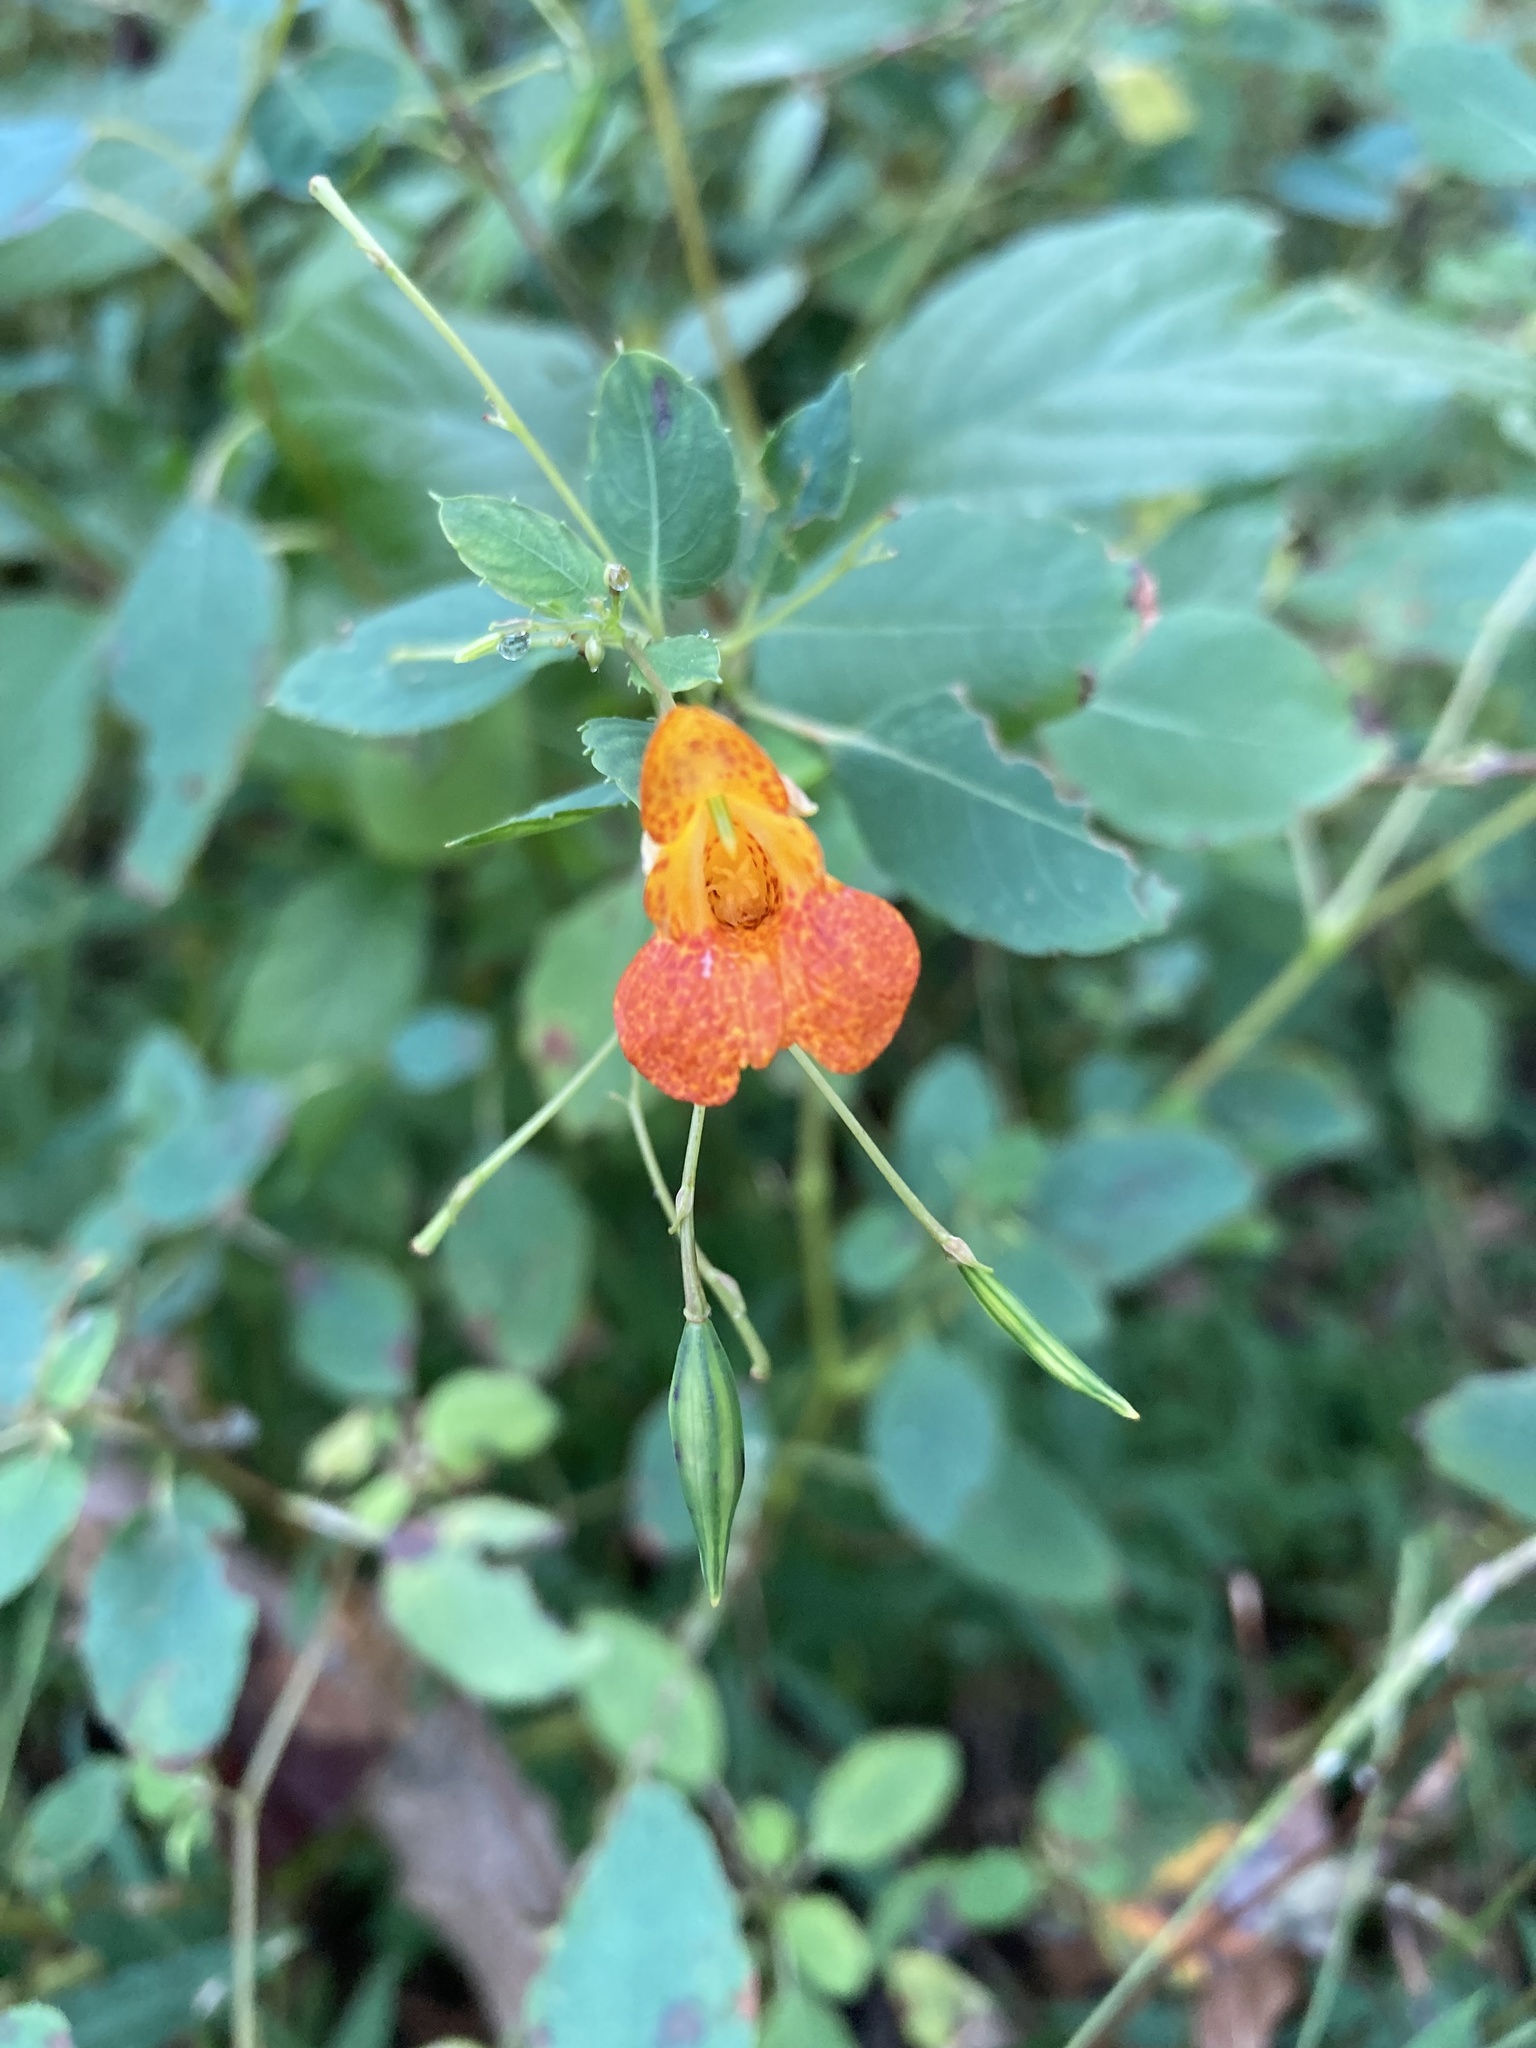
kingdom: Plantae
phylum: Tracheophyta
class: Magnoliopsida
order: Ericales
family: Balsaminaceae
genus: Impatiens
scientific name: Impatiens capensis
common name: Orange balsam
